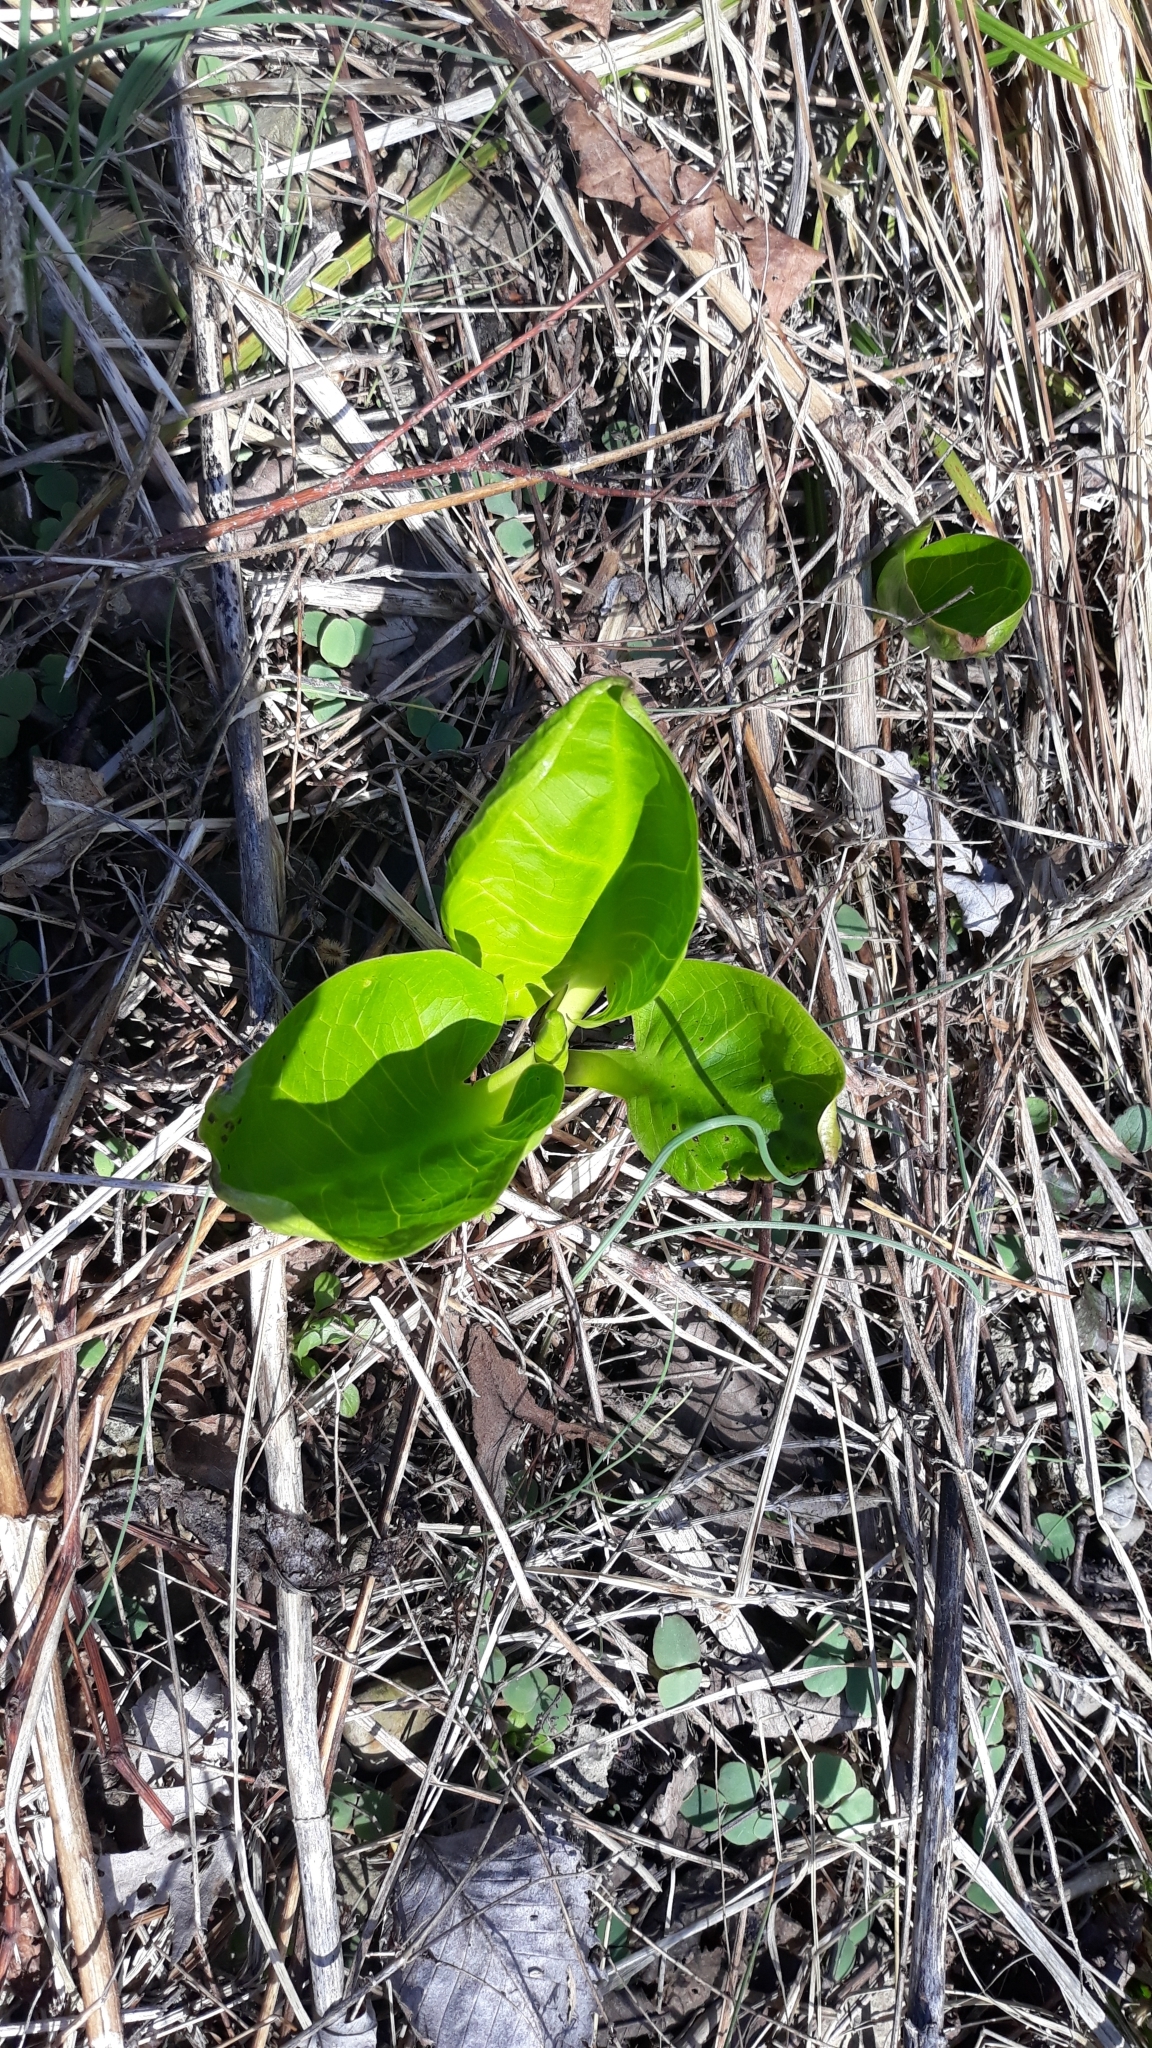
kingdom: Plantae
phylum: Tracheophyta
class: Liliopsida
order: Alismatales
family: Araceae
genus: Symplocarpus
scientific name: Symplocarpus foetidus
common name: Eastern skunk cabbage
